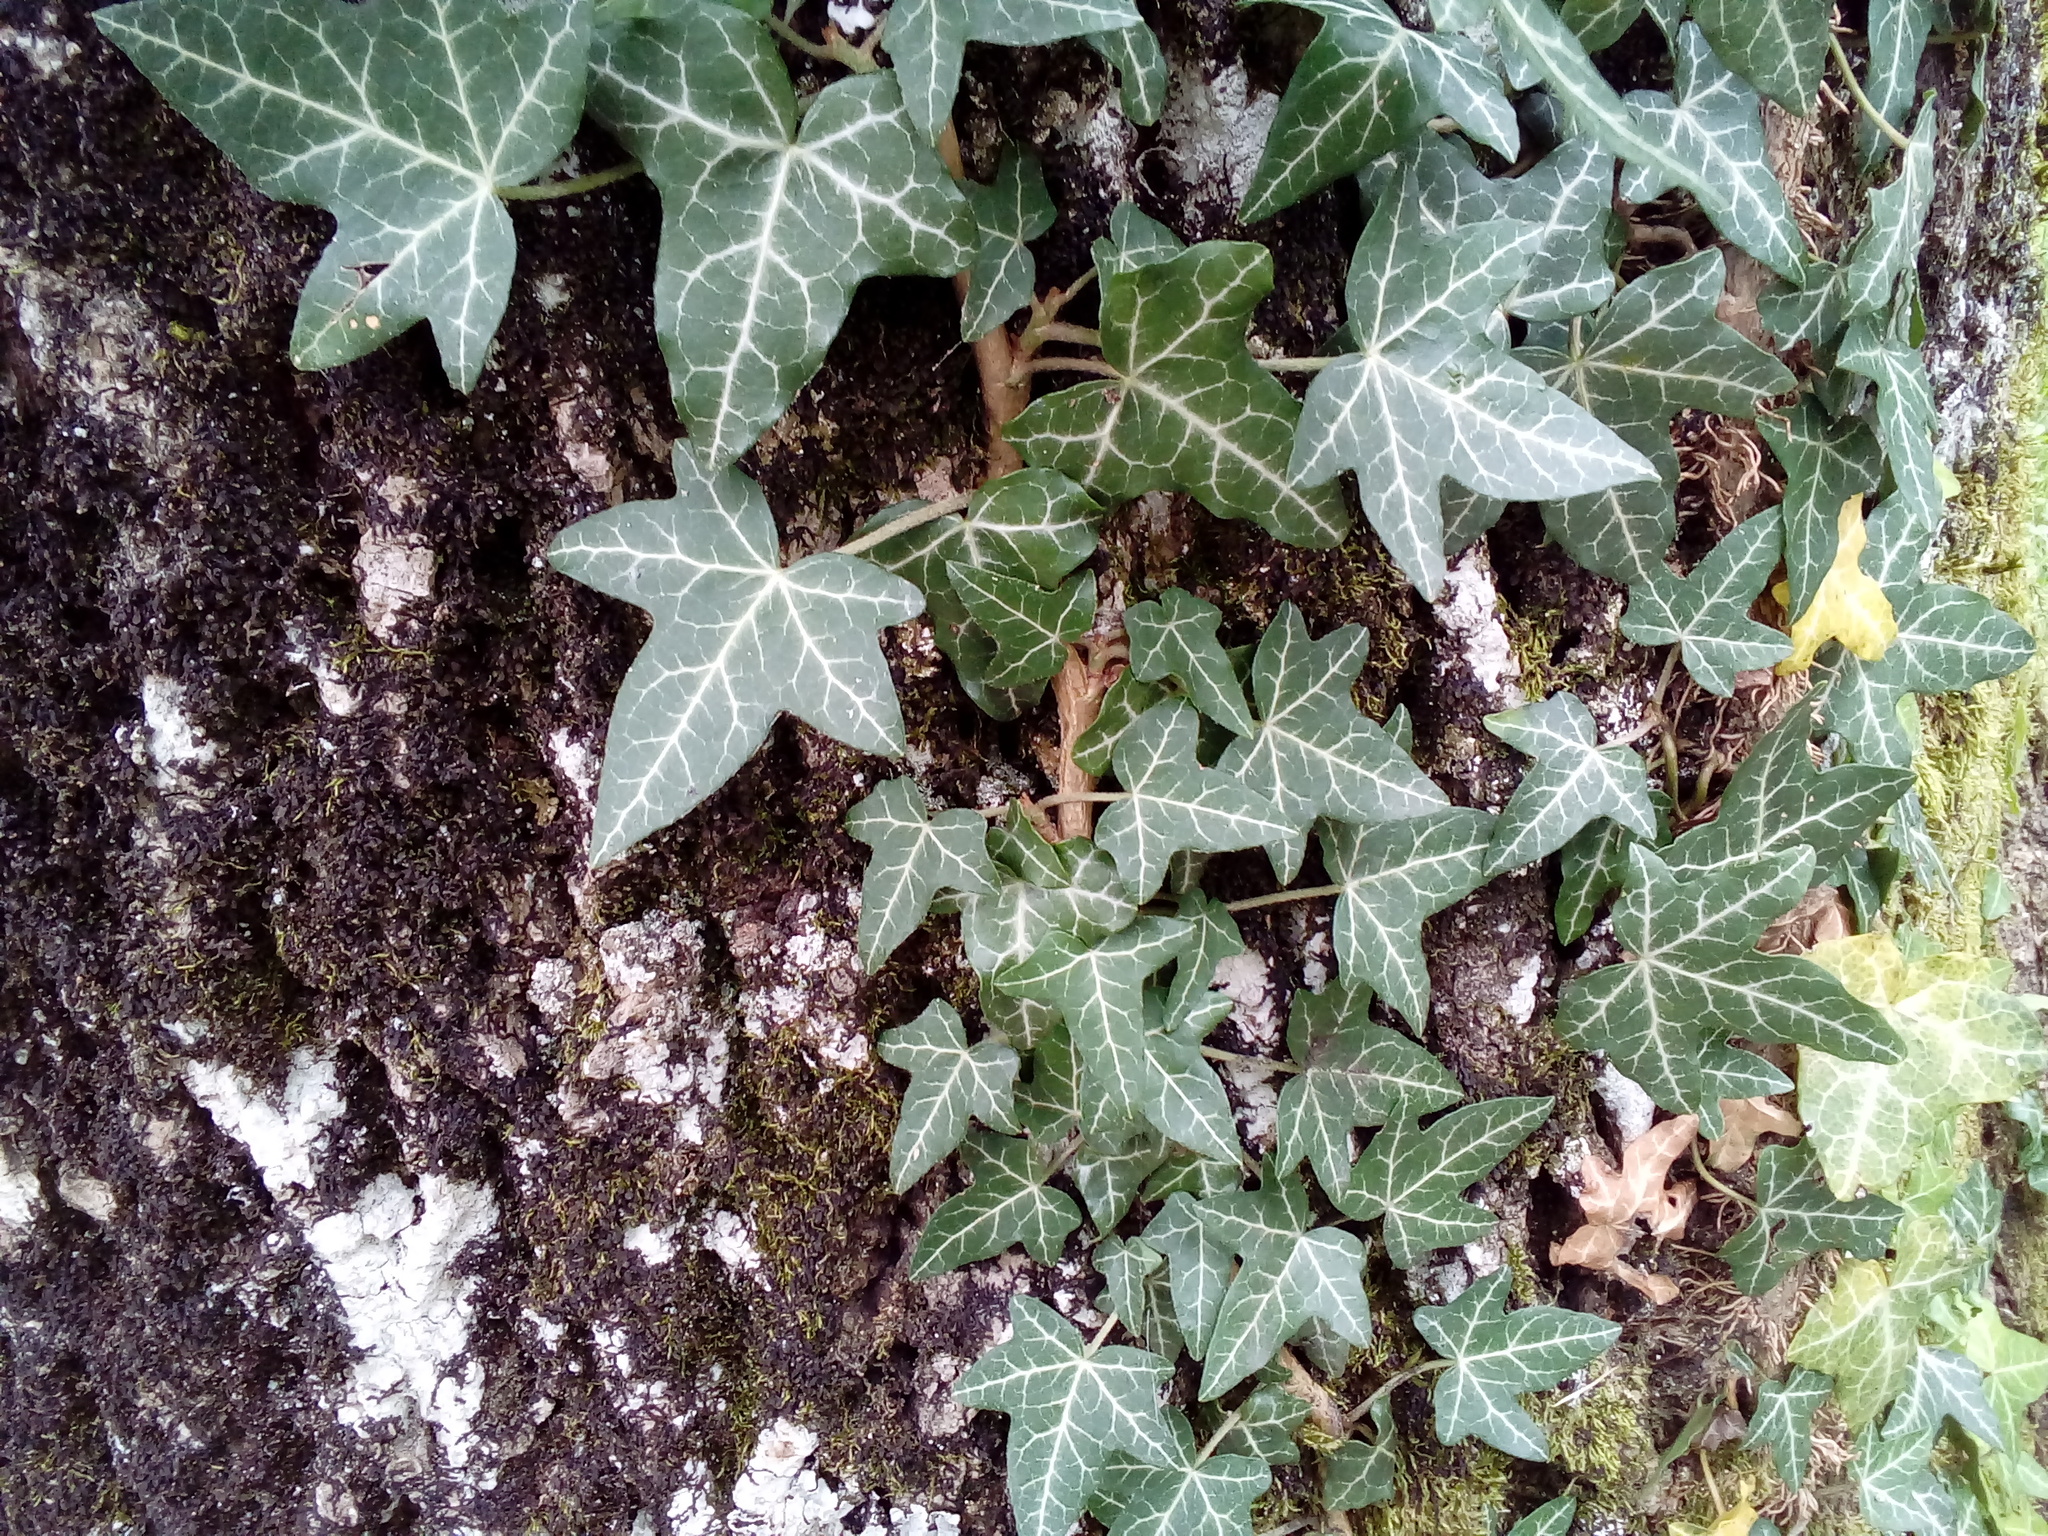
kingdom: Plantae
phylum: Tracheophyta
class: Magnoliopsida
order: Apiales
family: Araliaceae
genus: Hedera
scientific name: Hedera helix
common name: Ivy
